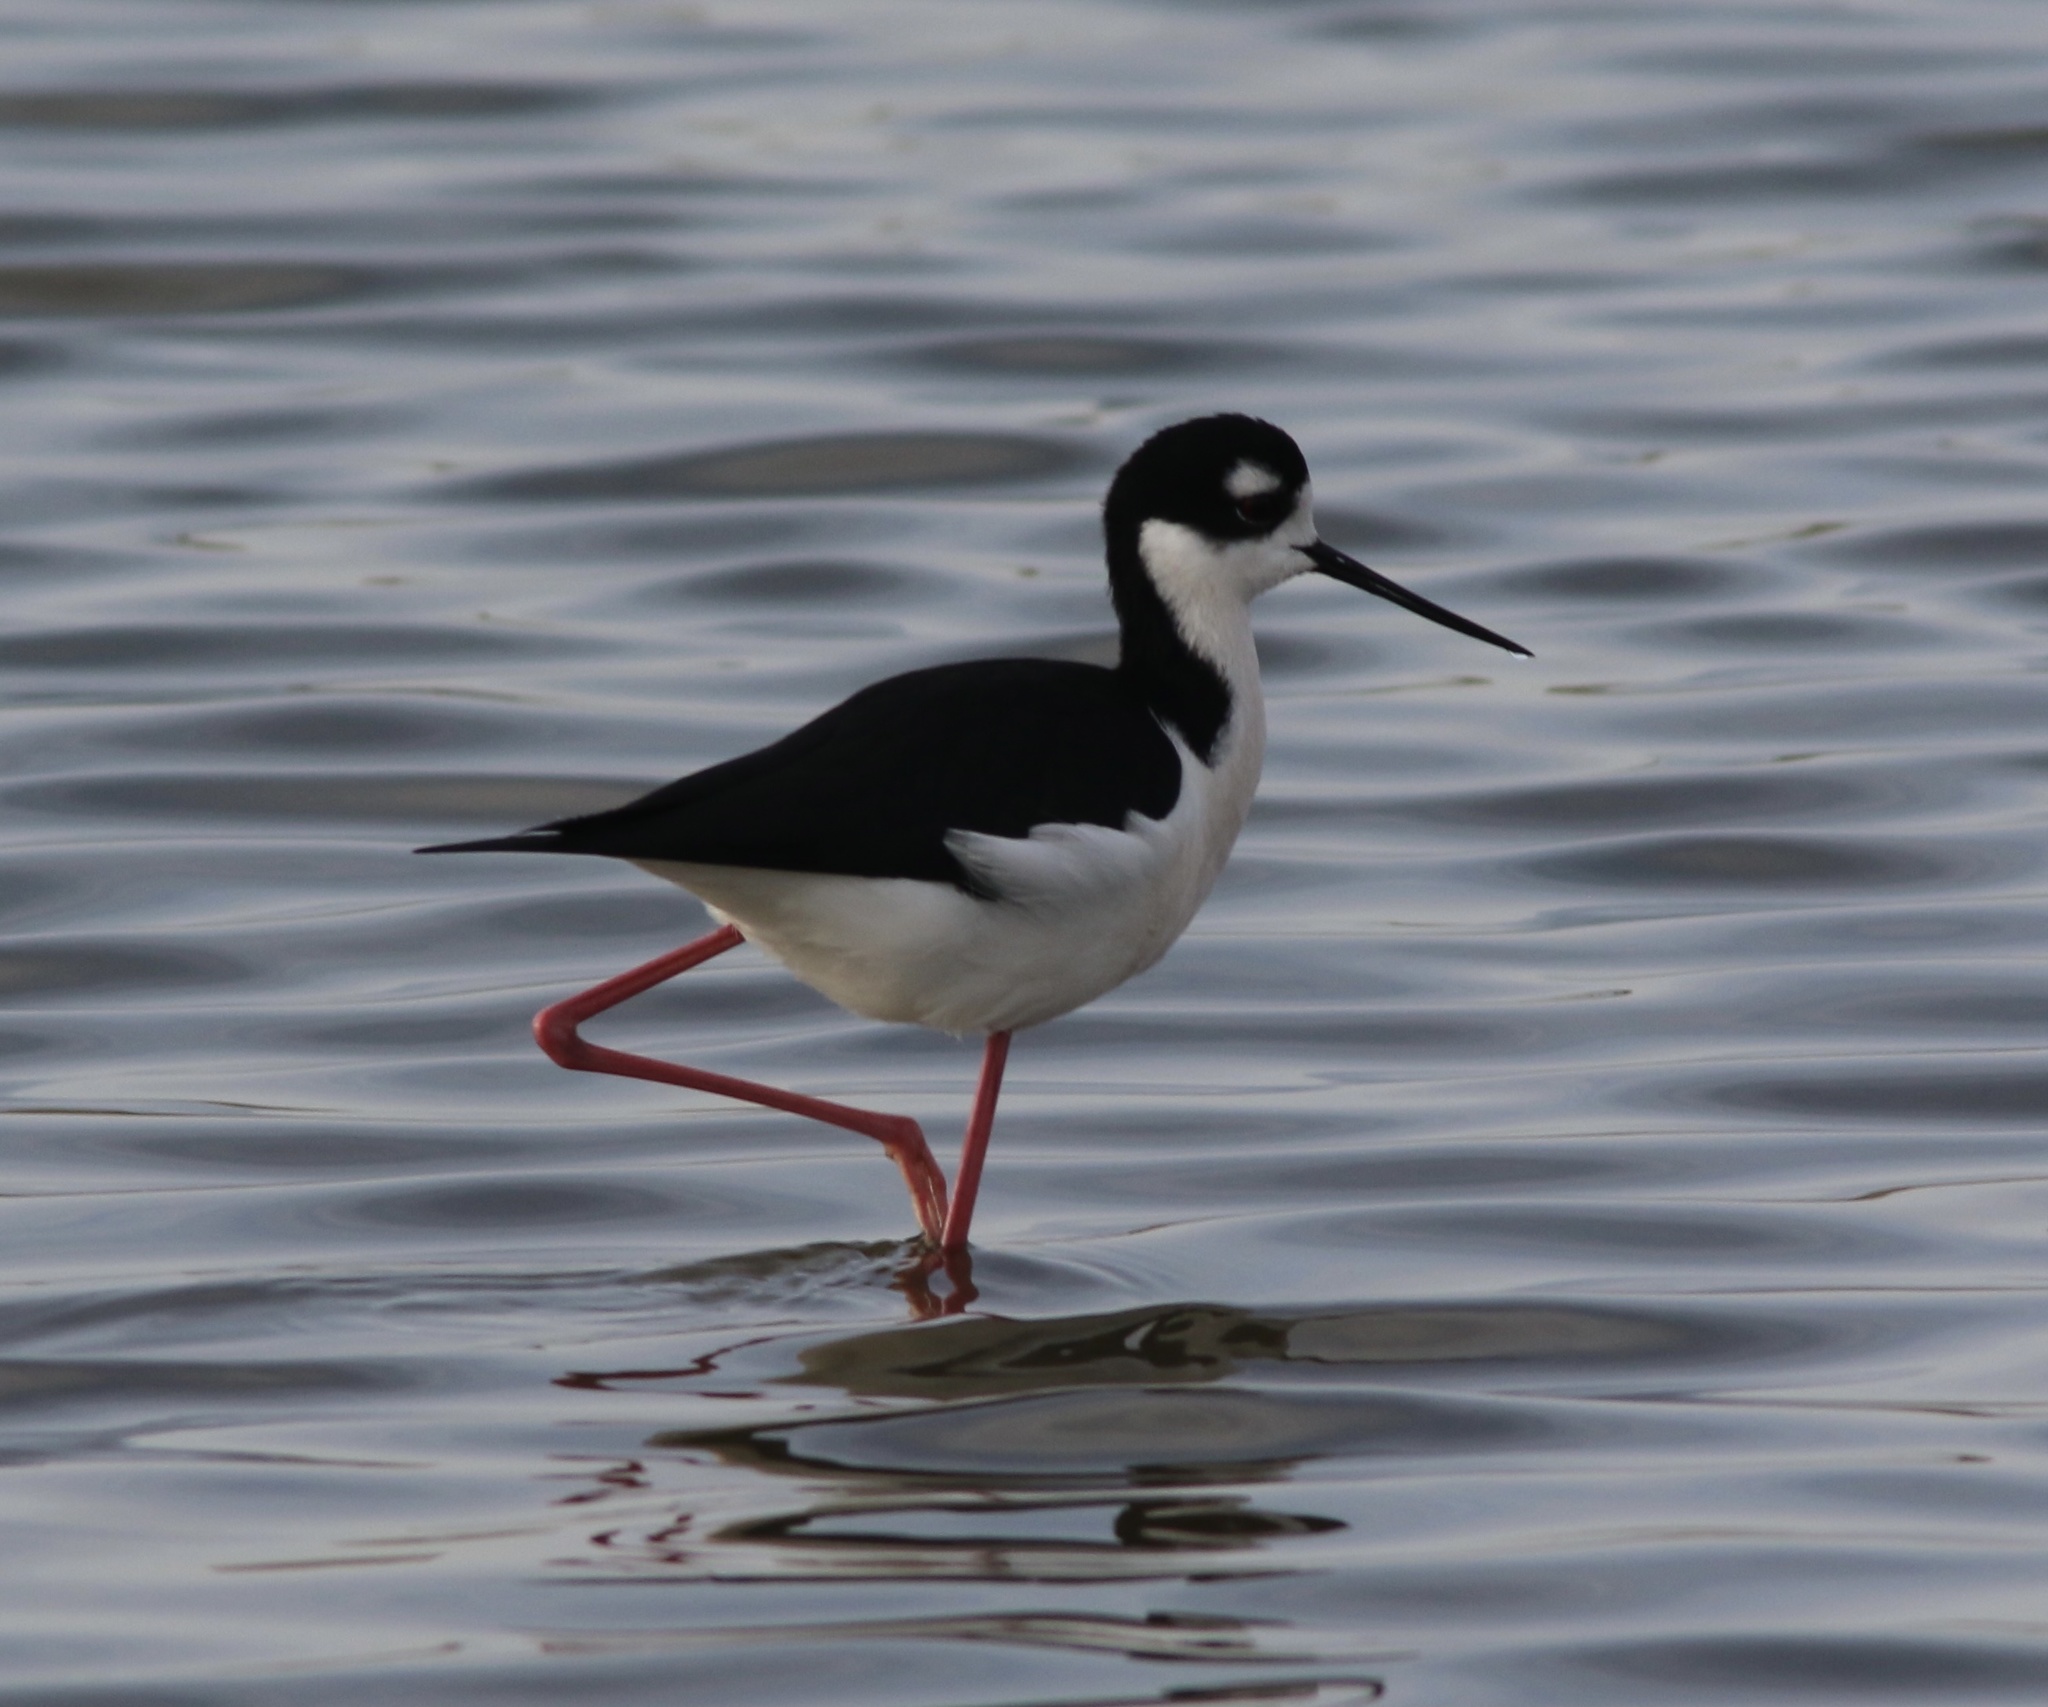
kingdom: Animalia
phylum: Chordata
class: Aves
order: Charadriiformes
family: Recurvirostridae
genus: Himantopus
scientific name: Himantopus mexicanus
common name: Black-necked stilt
